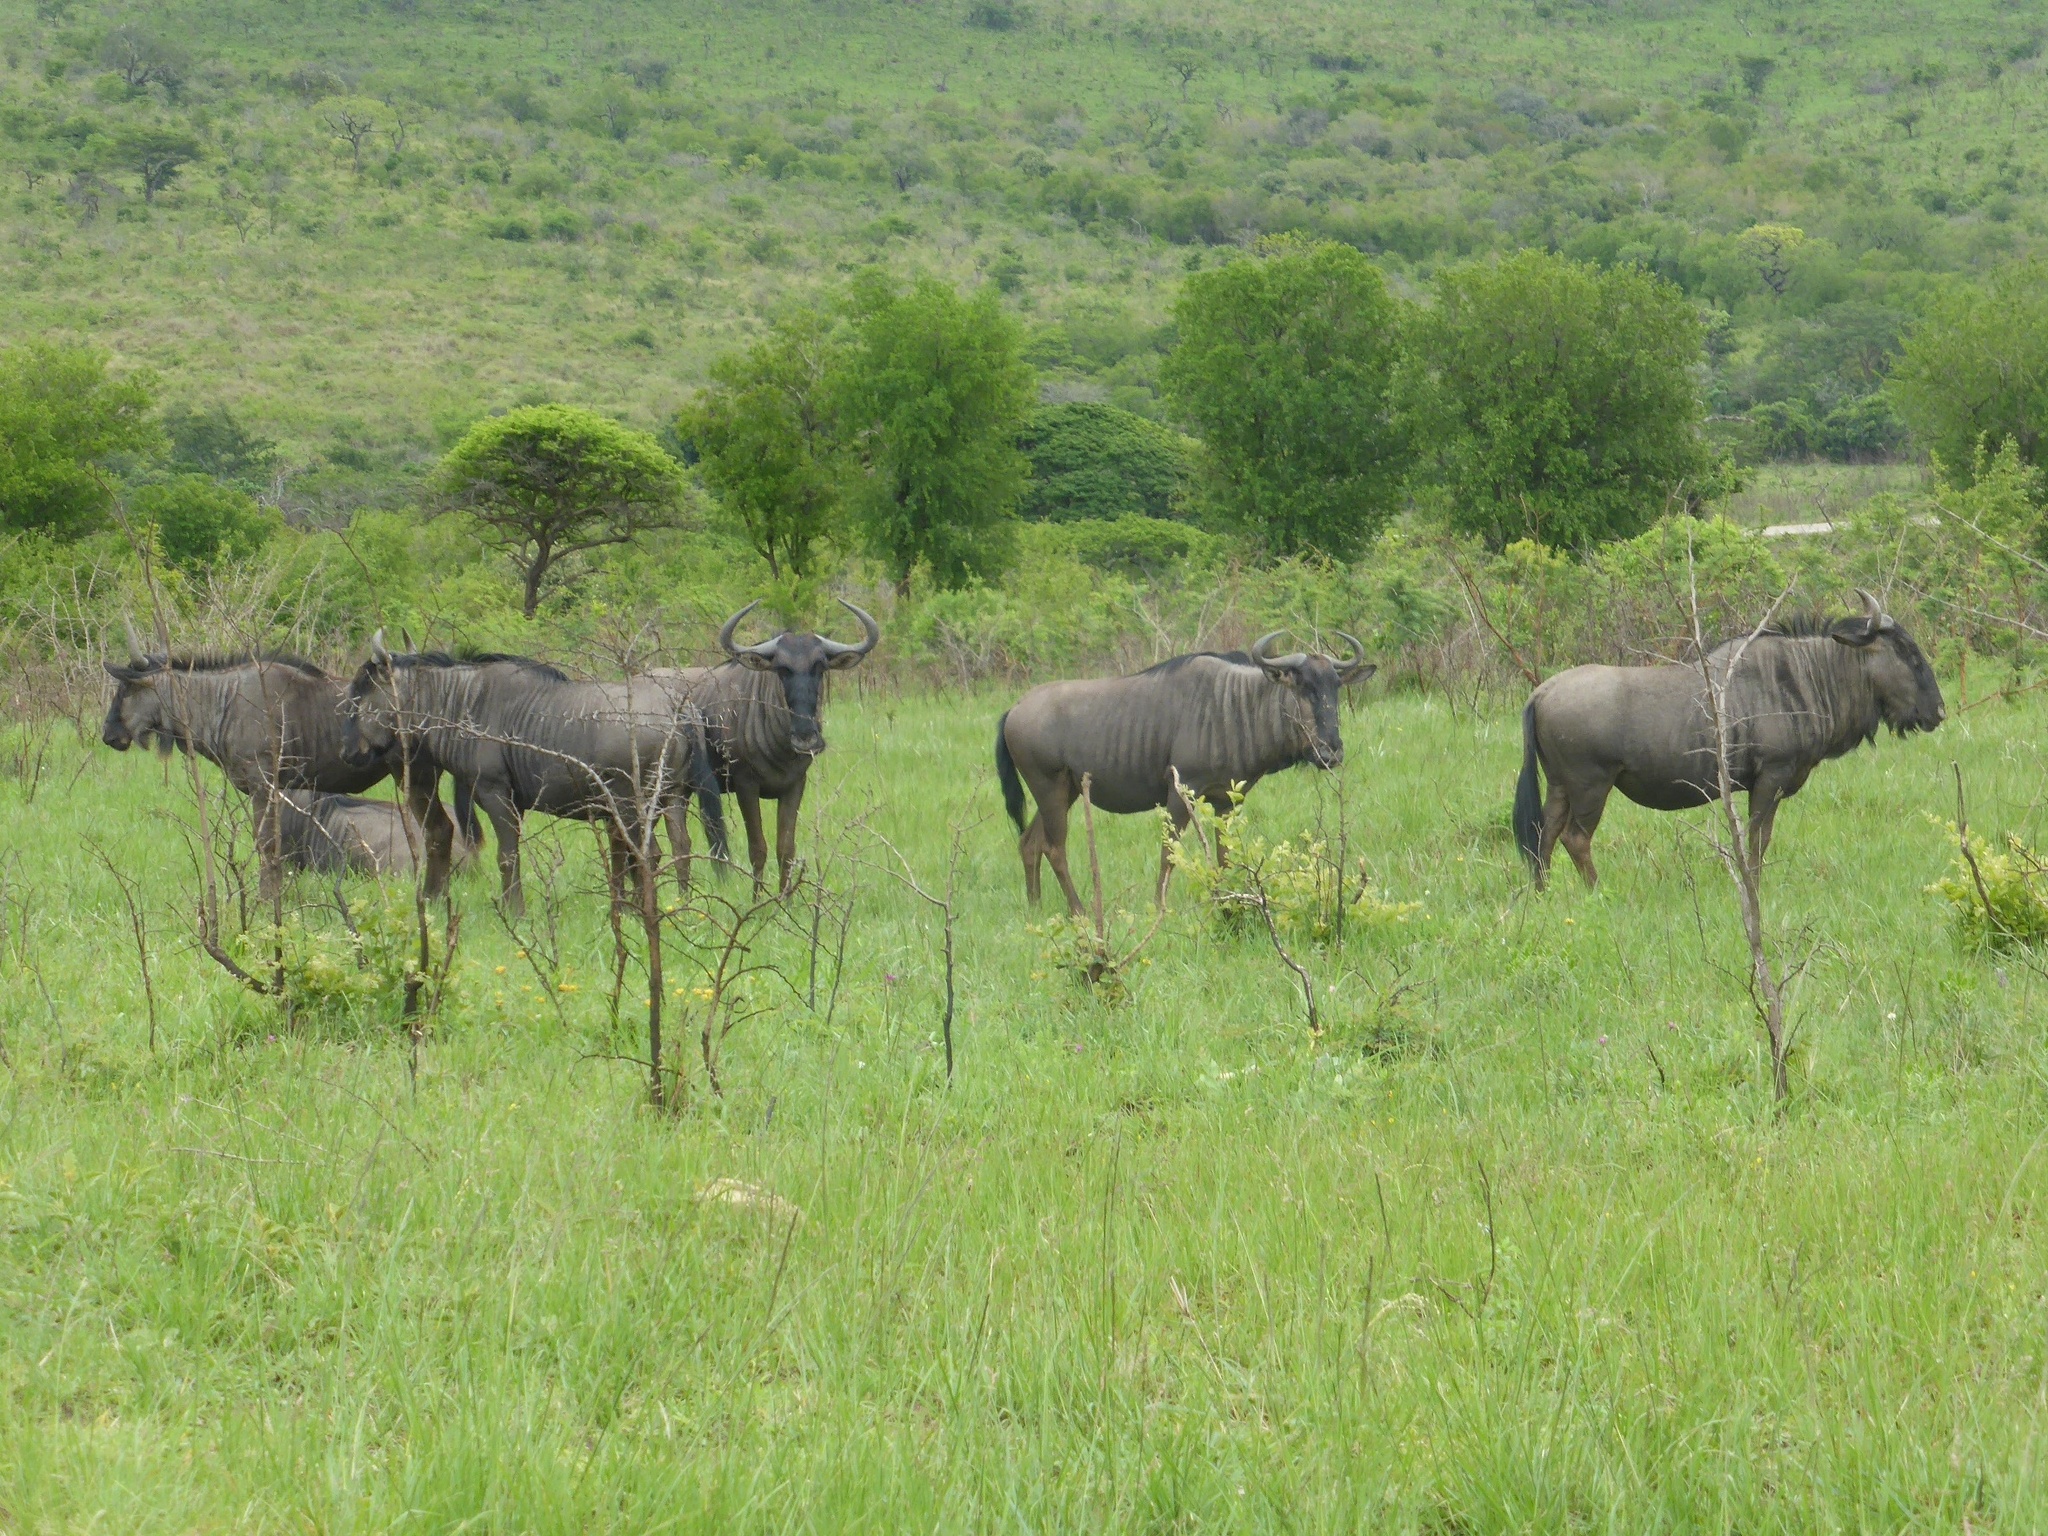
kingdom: Animalia
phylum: Chordata
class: Mammalia
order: Artiodactyla
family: Bovidae
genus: Connochaetes
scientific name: Connochaetes taurinus
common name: Blue wildebeest
